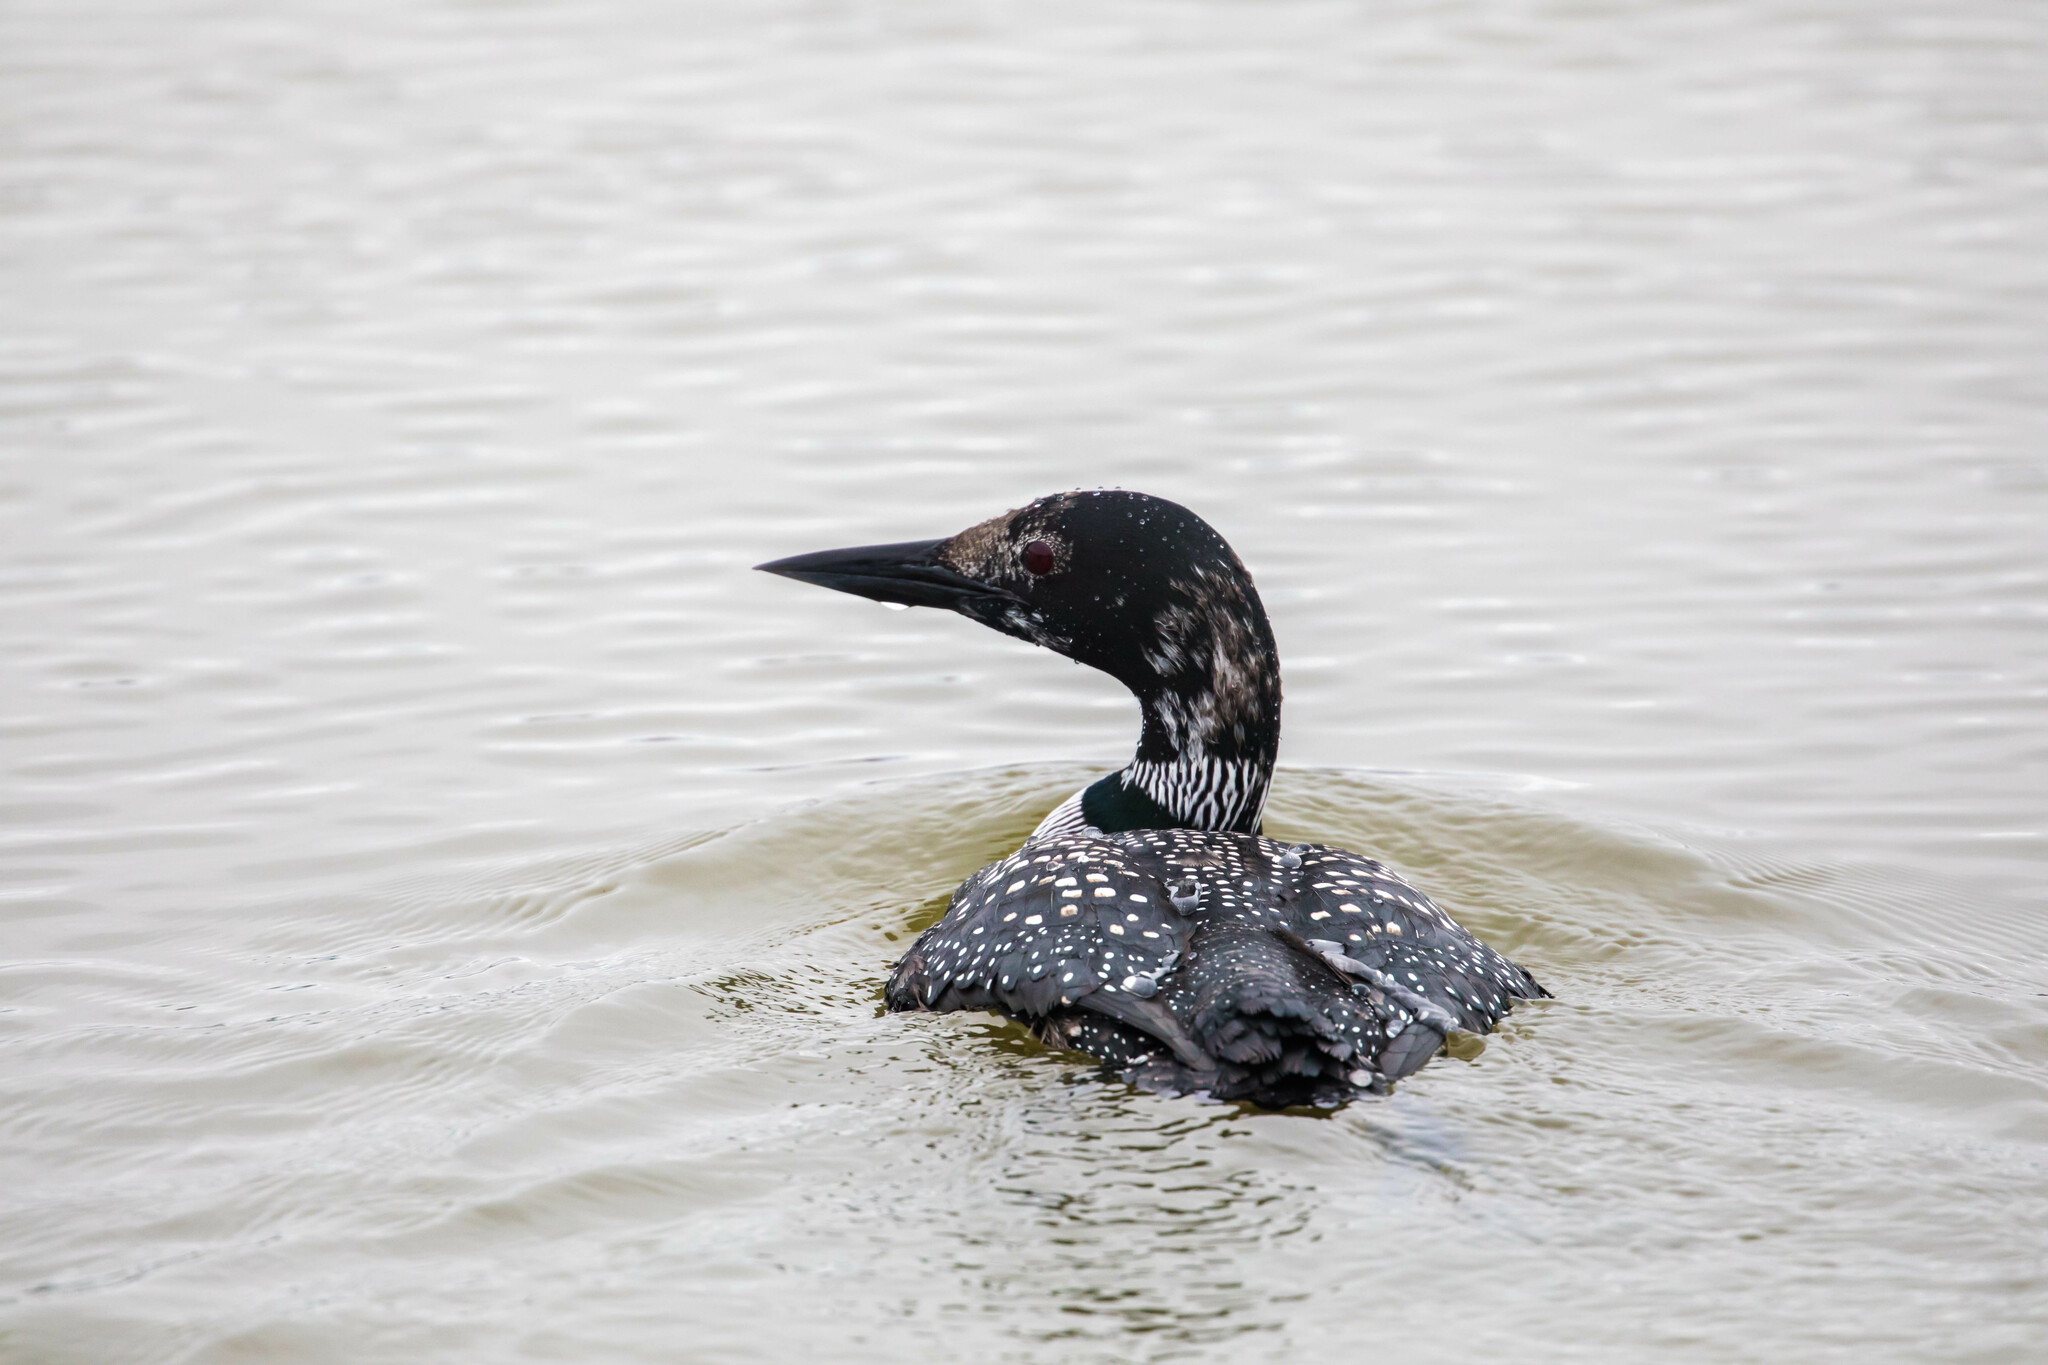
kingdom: Animalia
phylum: Chordata
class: Aves
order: Gaviiformes
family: Gaviidae
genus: Gavia
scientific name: Gavia immer
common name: Common loon
